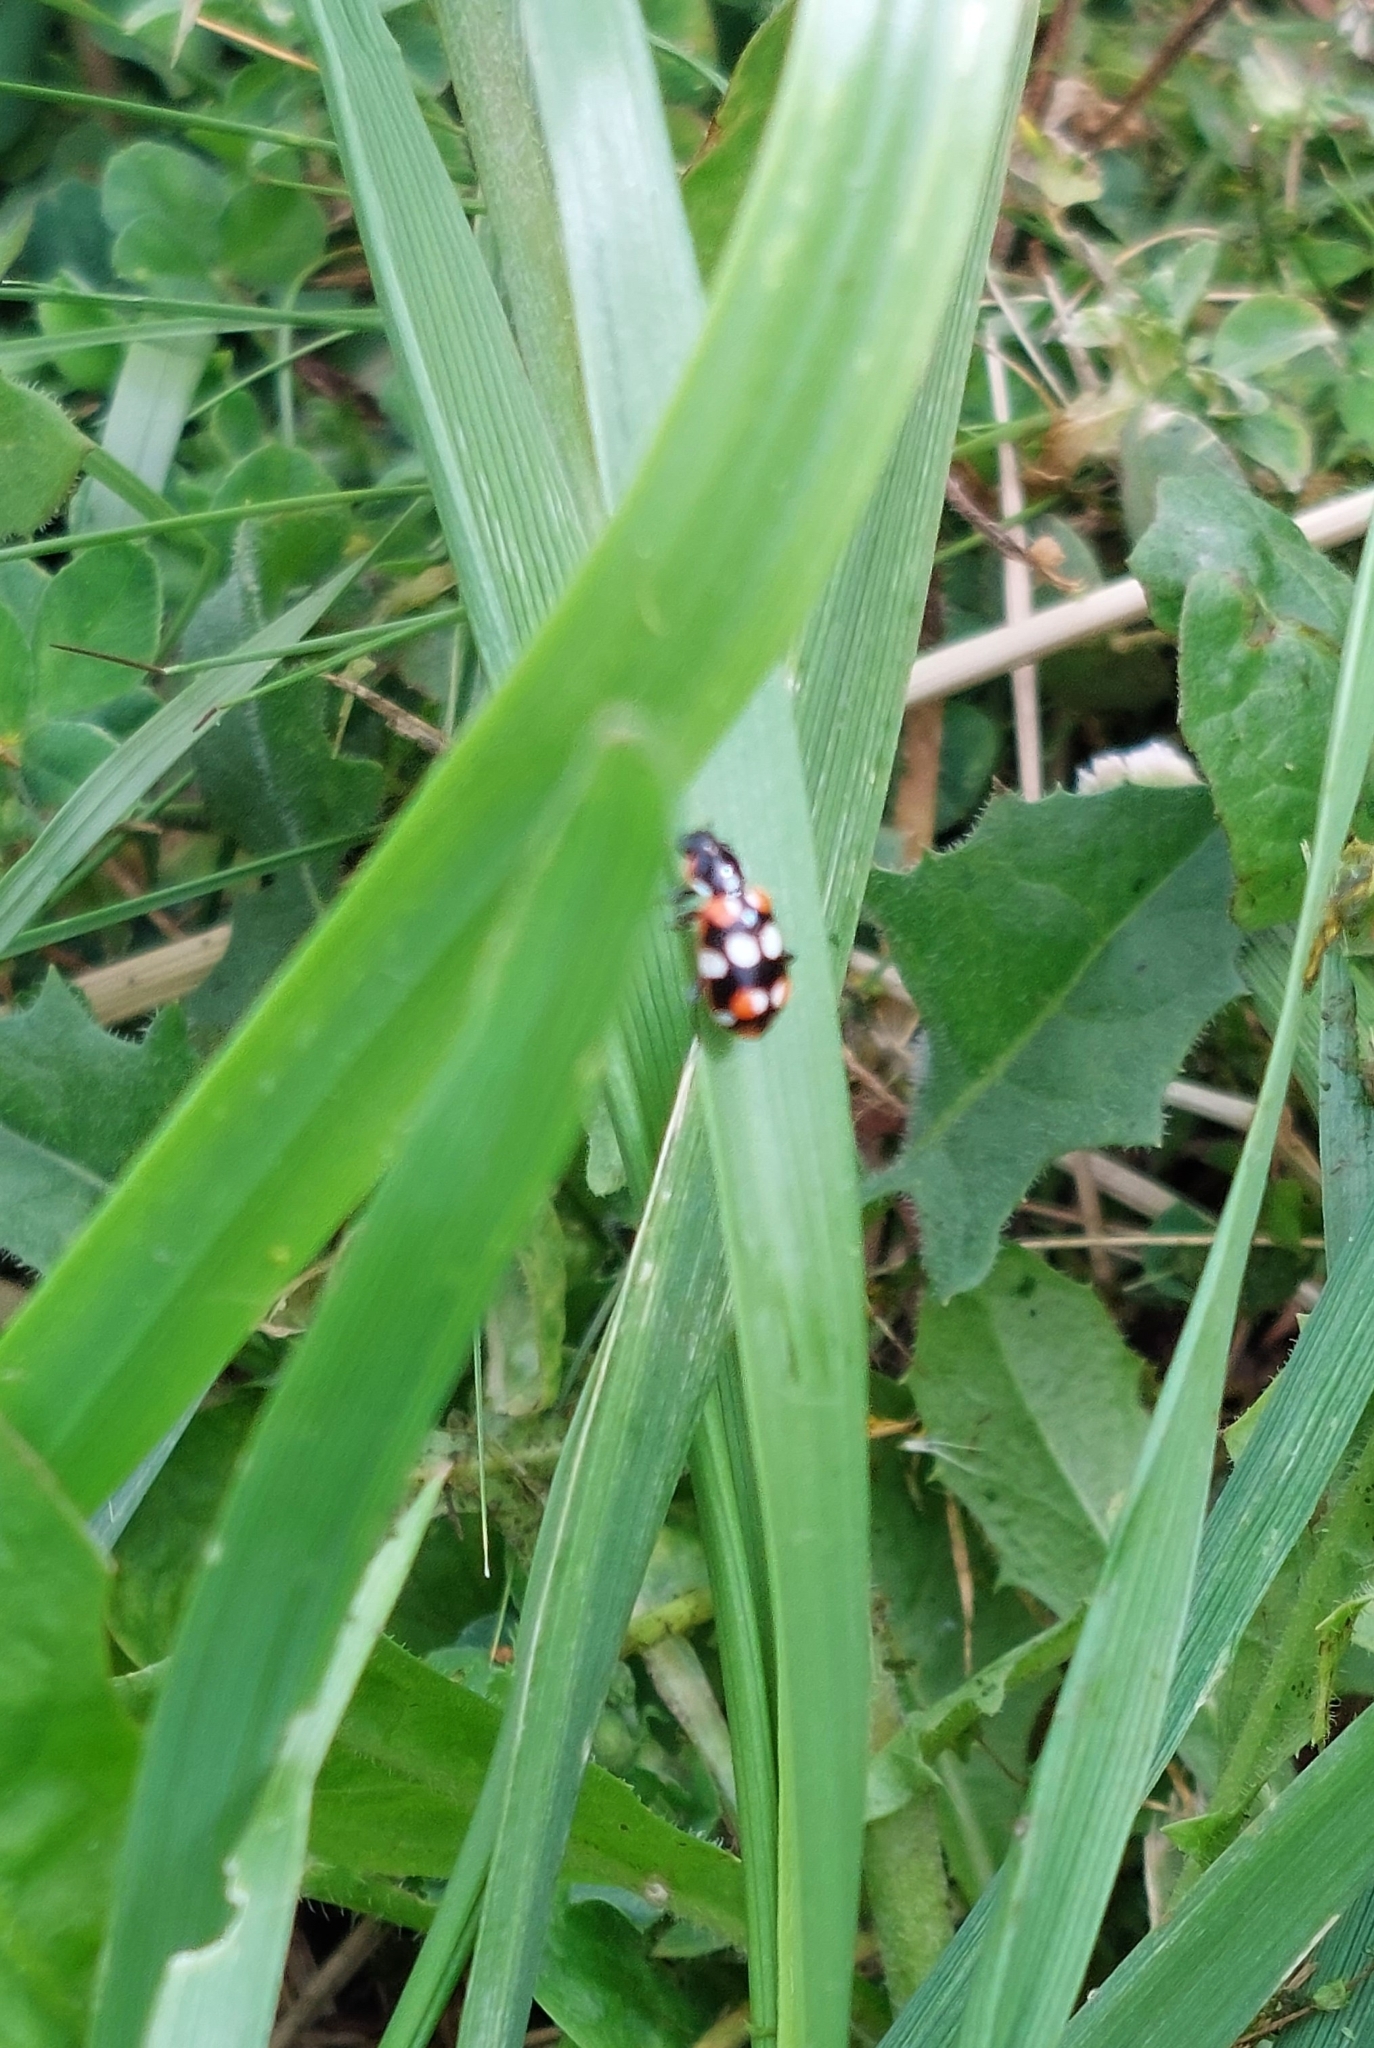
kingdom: Animalia
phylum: Arthropoda
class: Insecta
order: Coleoptera
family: Coccinellidae
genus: Eriopis
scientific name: Eriopis connexa
